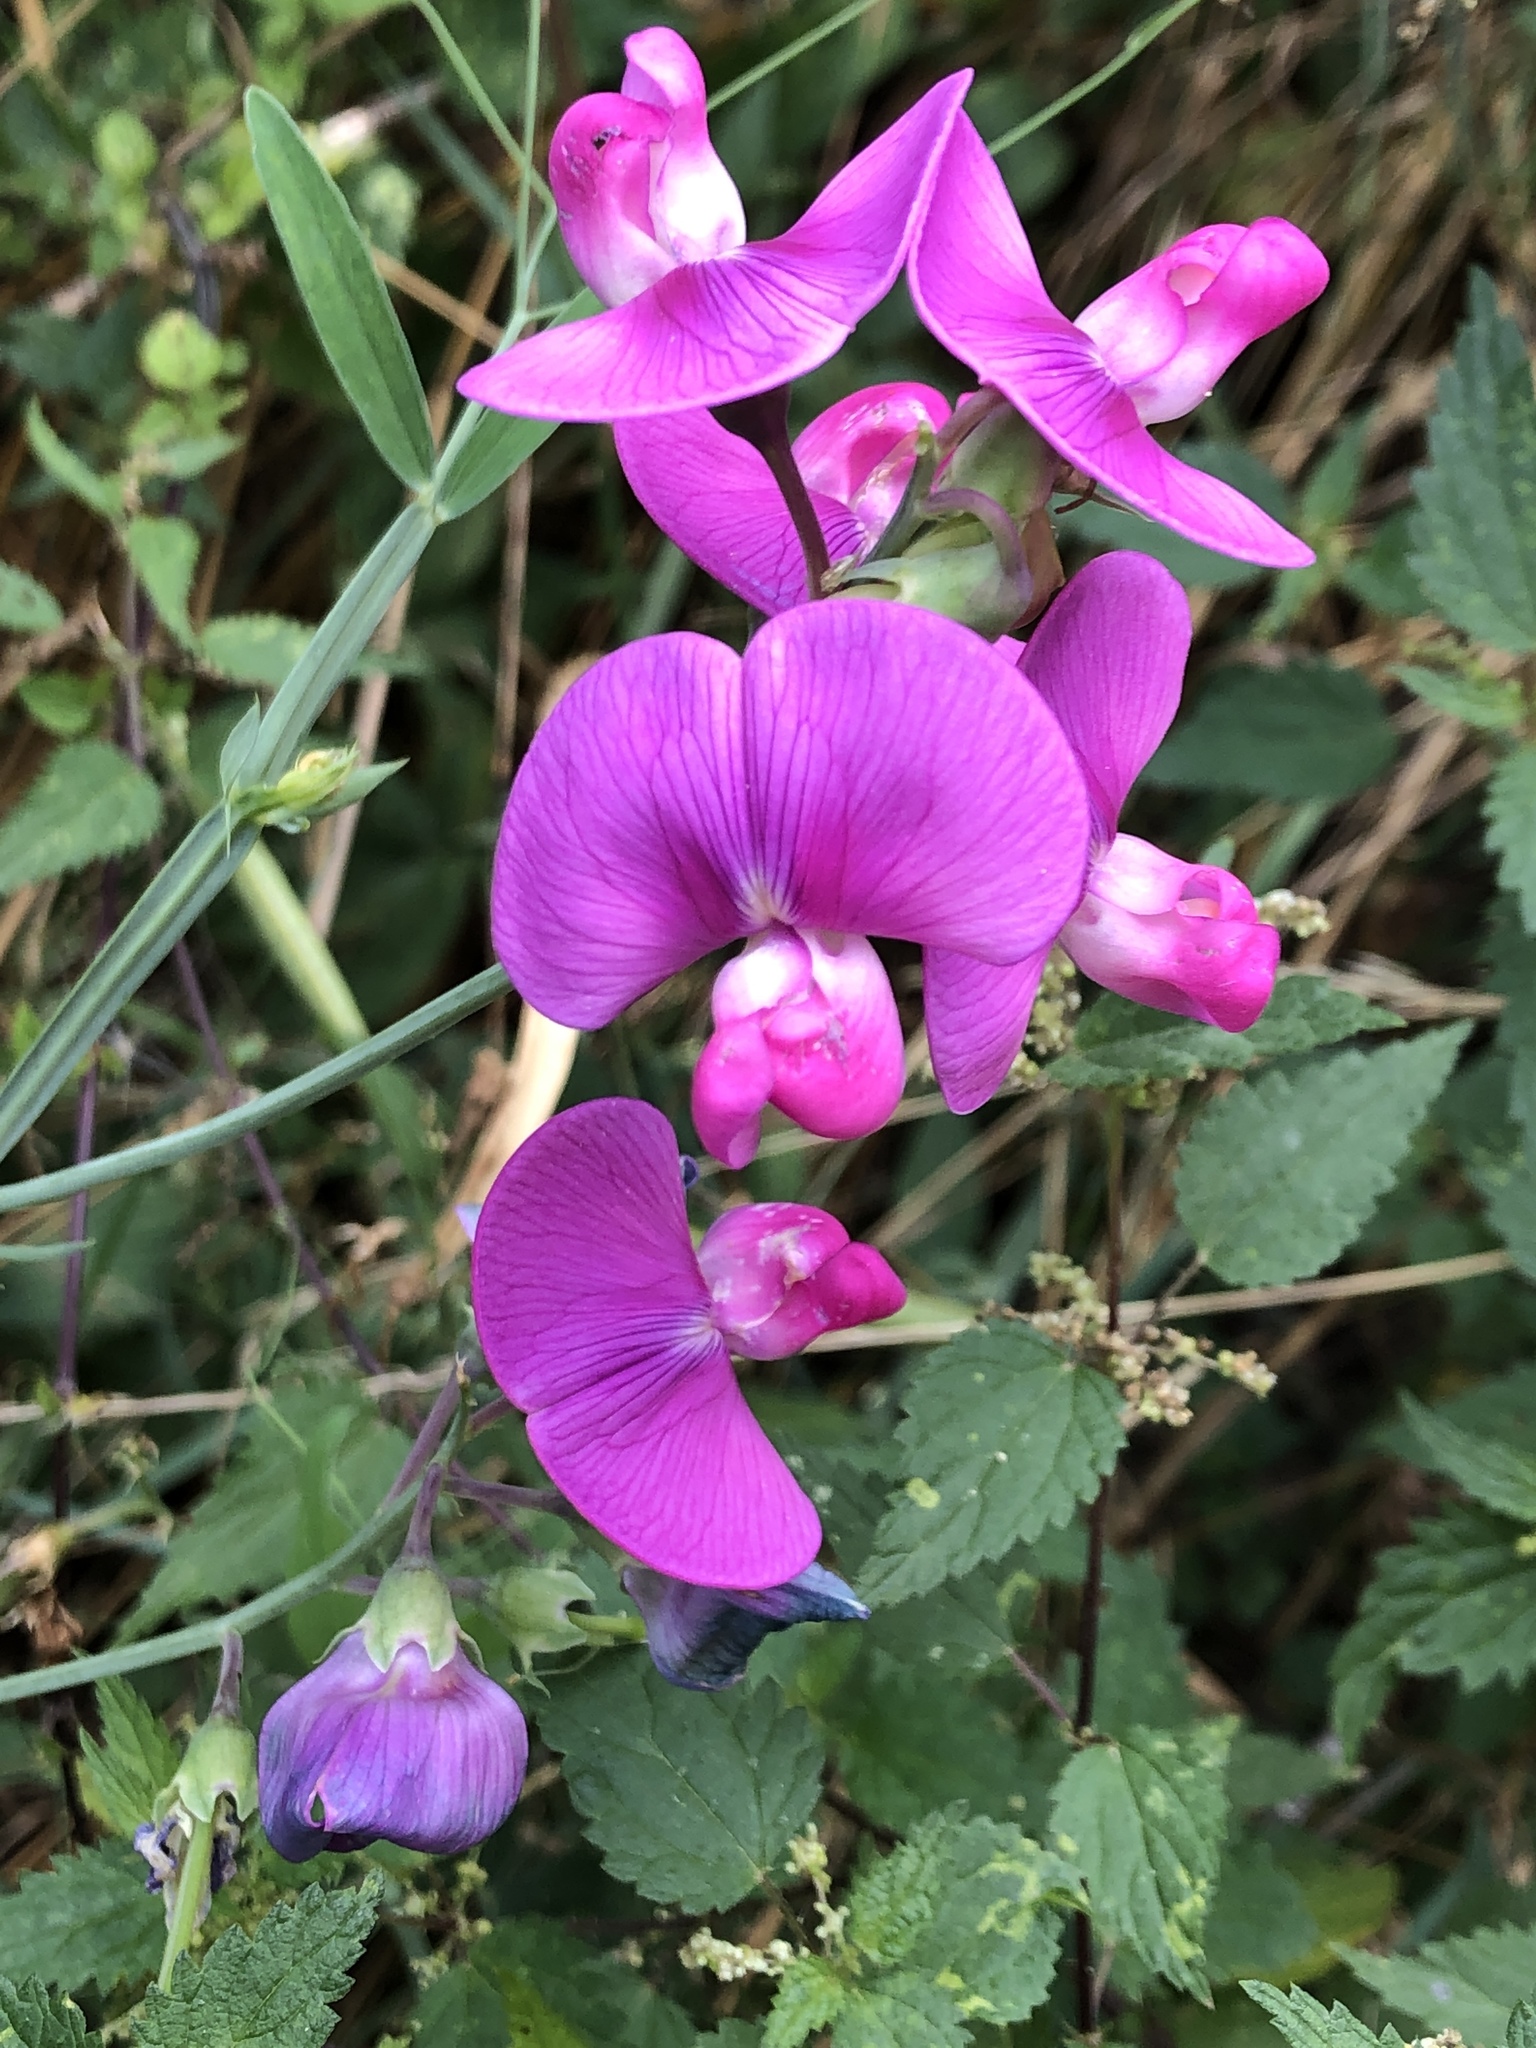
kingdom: Plantae
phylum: Tracheophyta
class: Magnoliopsida
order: Fabales
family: Fabaceae
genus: Lathyrus
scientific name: Lathyrus latifolius
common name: Perennial pea
